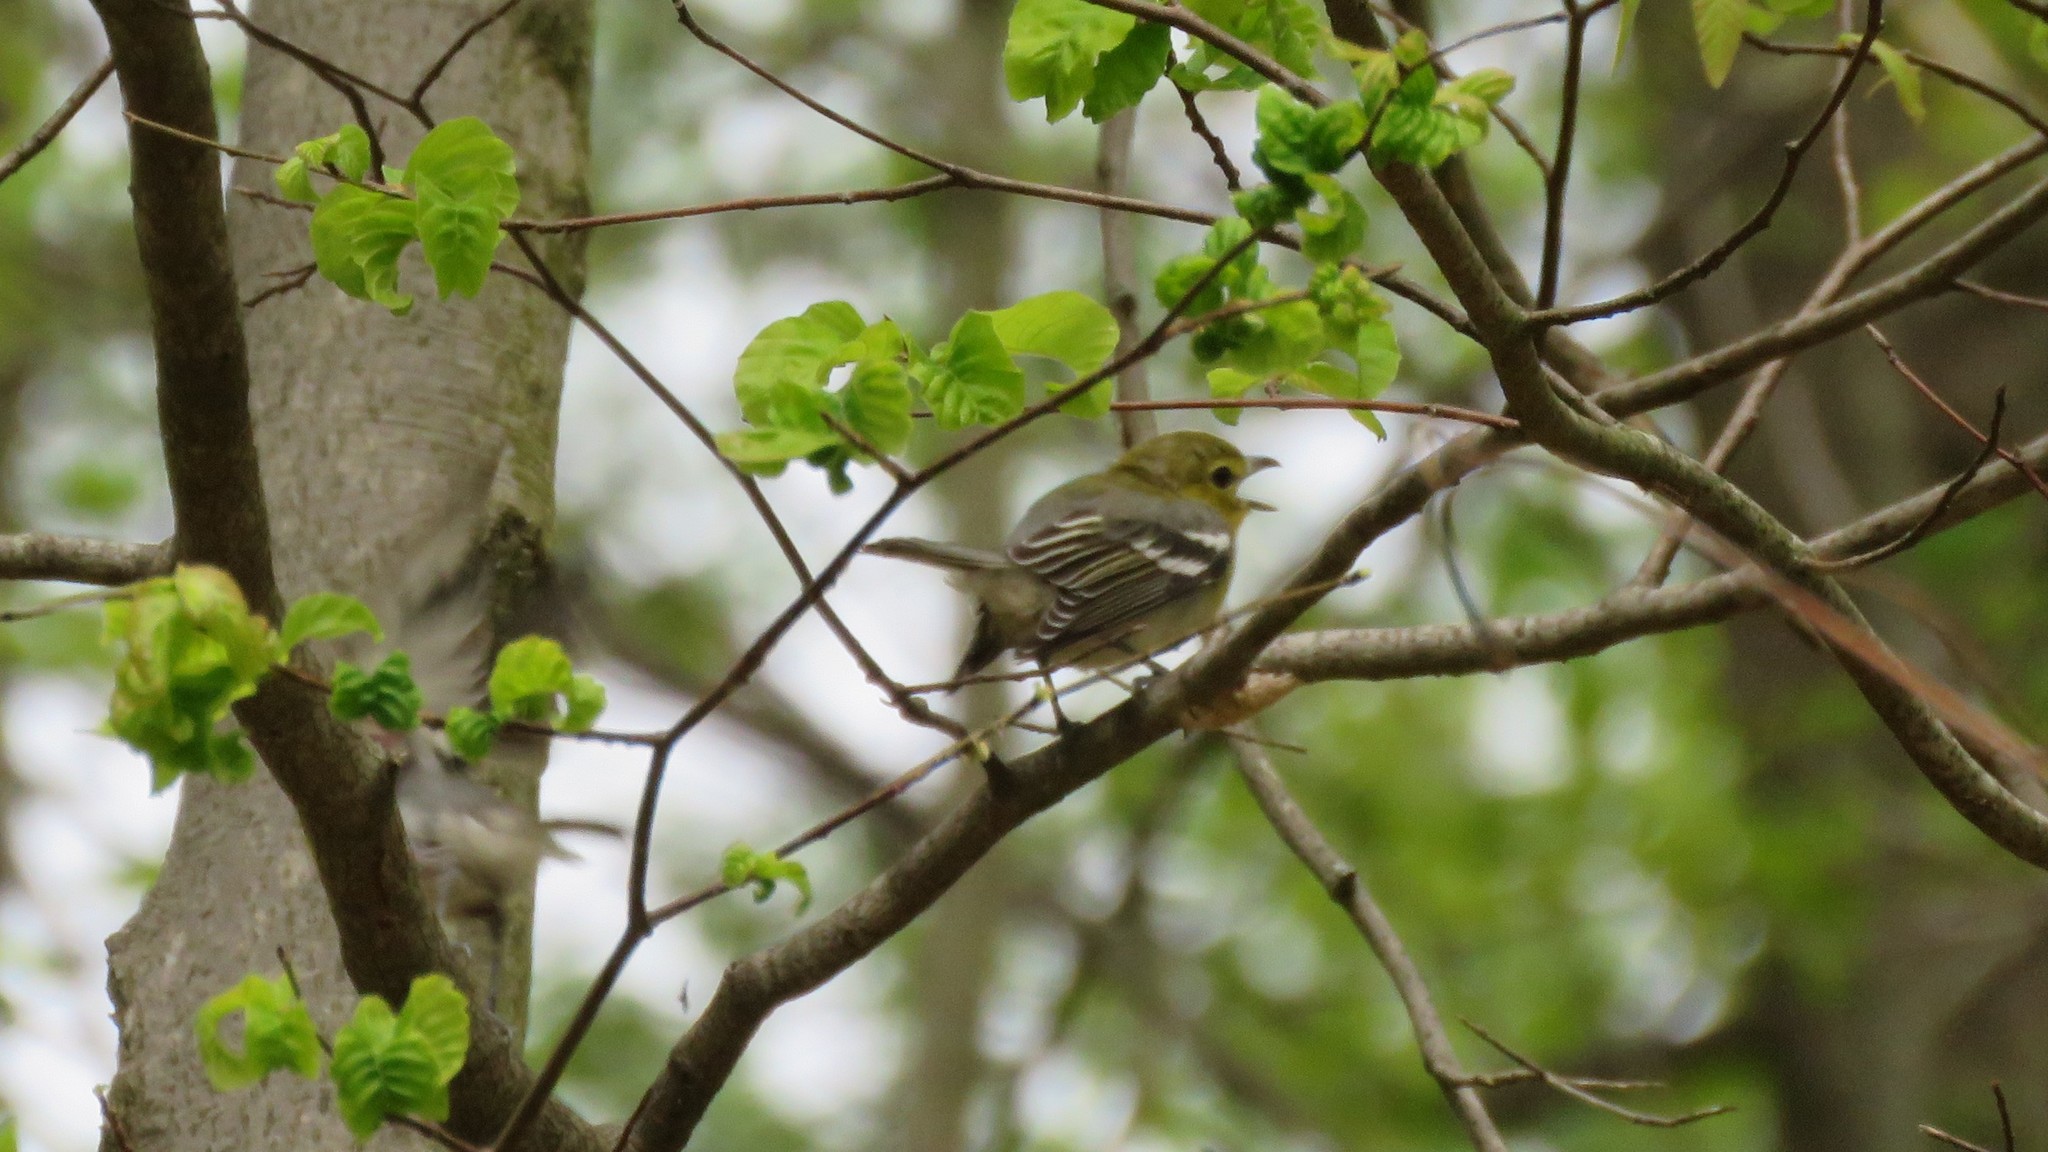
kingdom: Animalia
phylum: Chordata
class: Aves
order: Passeriformes
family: Vireonidae
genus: Vireo
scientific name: Vireo flavifrons
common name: Yellow-throated vireo
